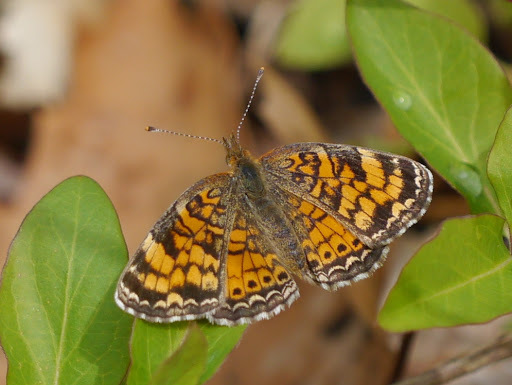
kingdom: Animalia
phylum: Arthropoda
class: Insecta
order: Lepidoptera
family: Nymphalidae
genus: Phyciodes
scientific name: Phyciodes tharos
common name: Pearl crescent
